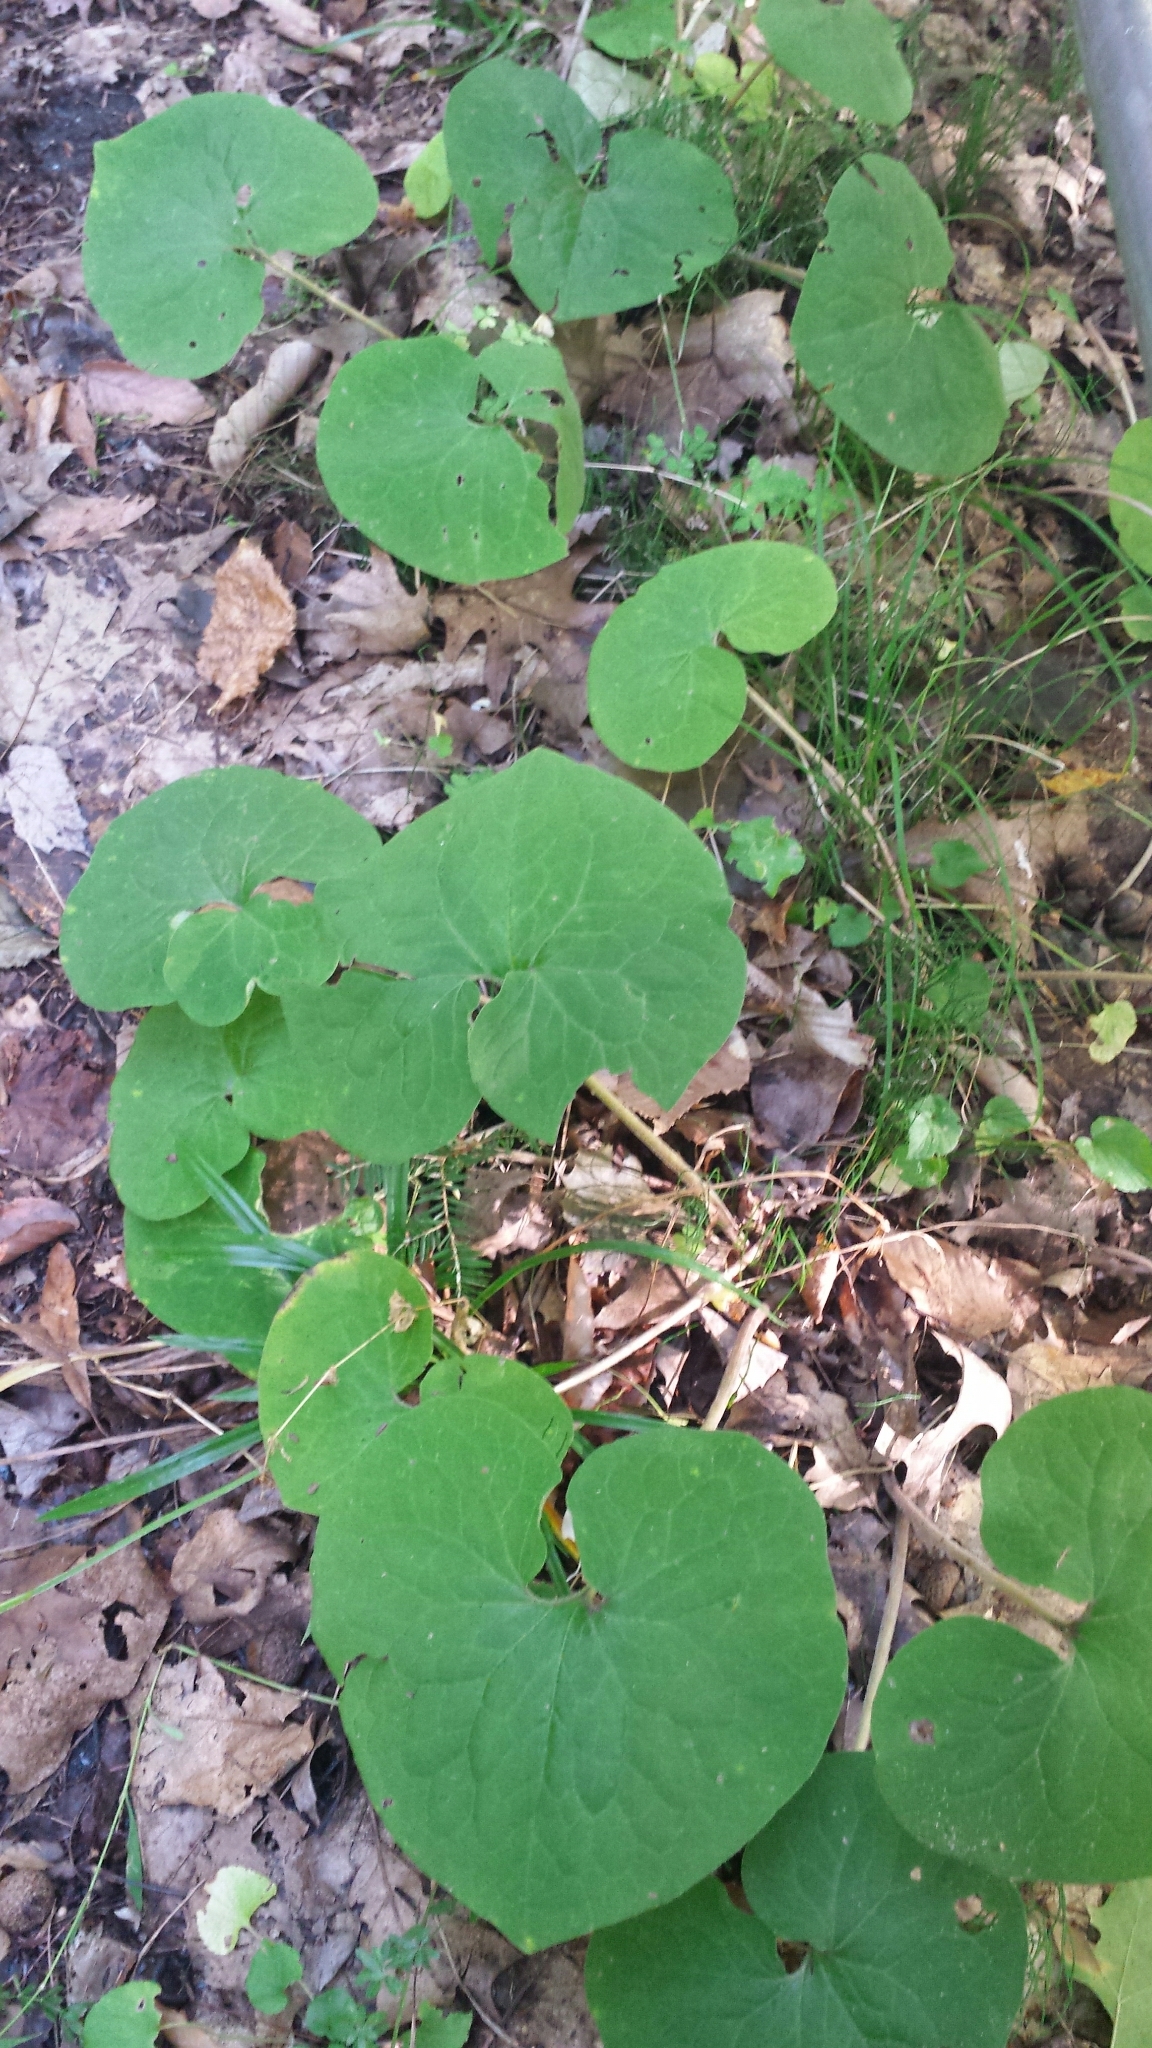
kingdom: Plantae
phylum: Tracheophyta
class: Magnoliopsida
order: Piperales
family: Aristolochiaceae
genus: Asarum
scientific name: Asarum canadense
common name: Wild ginger
